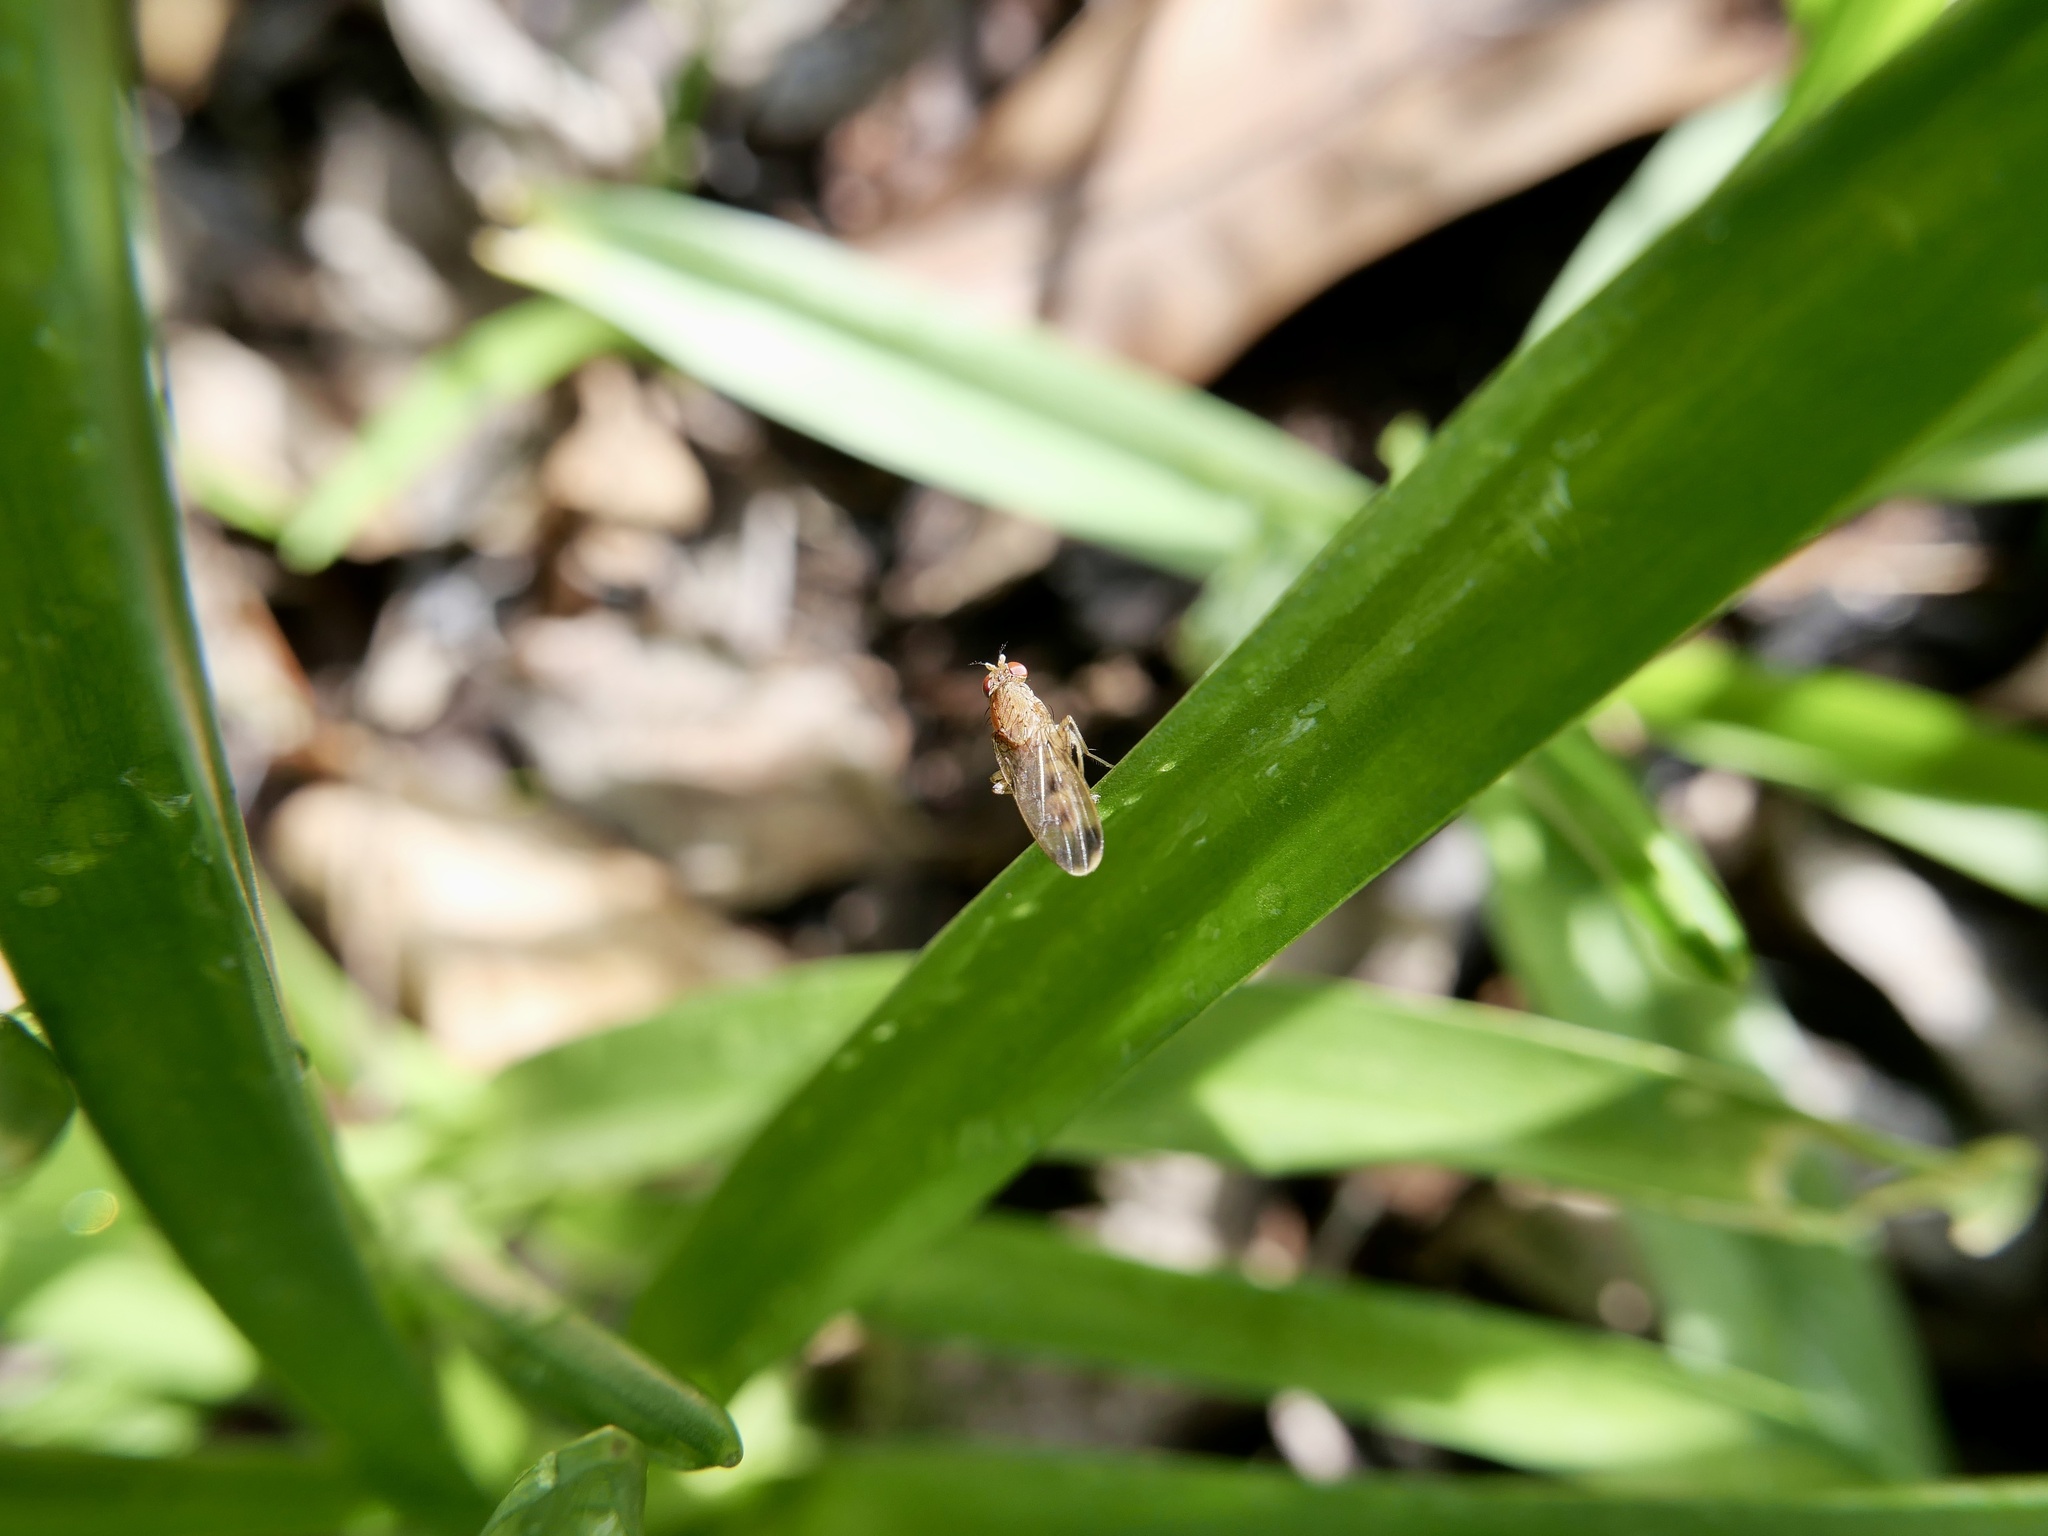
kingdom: Animalia
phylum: Arthropoda
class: Insecta
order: Diptera
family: Heleomyzidae
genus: Suillia
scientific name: Suillia variegata
